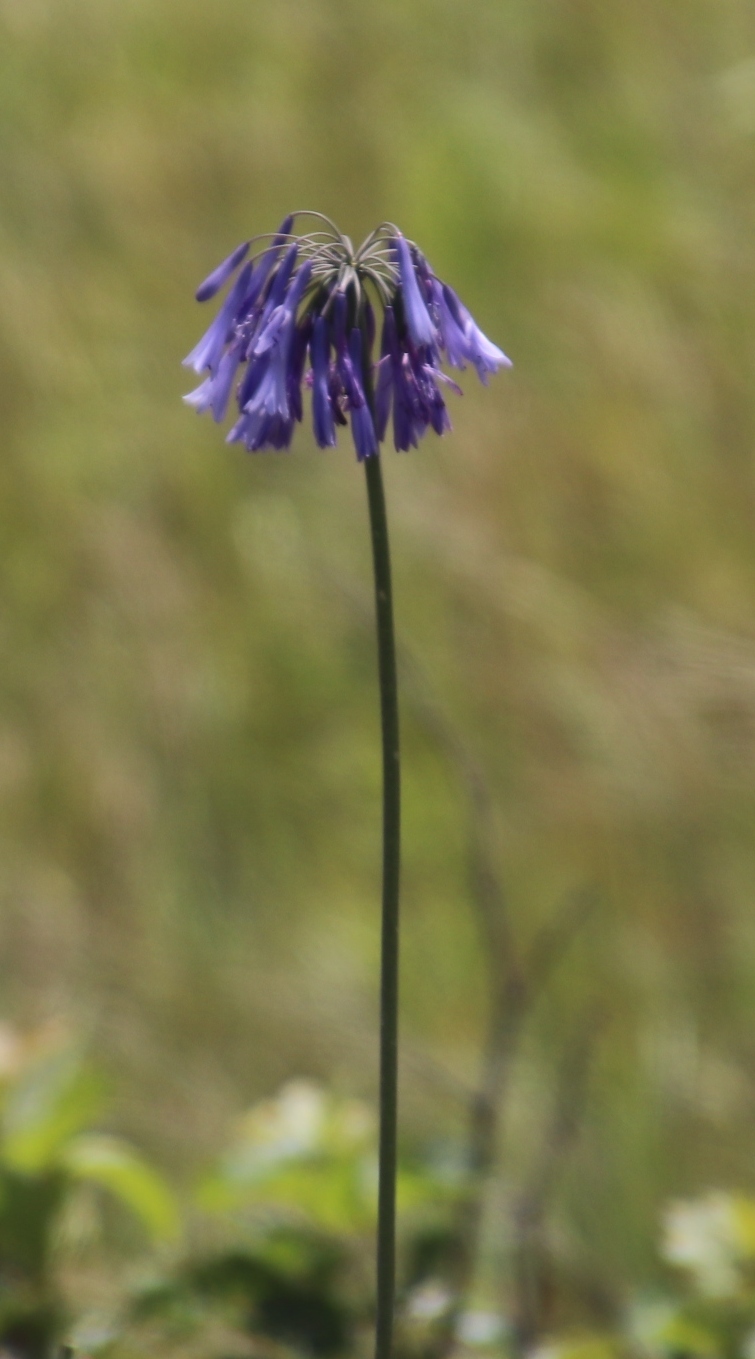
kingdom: Plantae
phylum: Tracheophyta
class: Liliopsida
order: Asparagales
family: Amaryllidaceae
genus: Agapanthus
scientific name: Agapanthus inapertus
